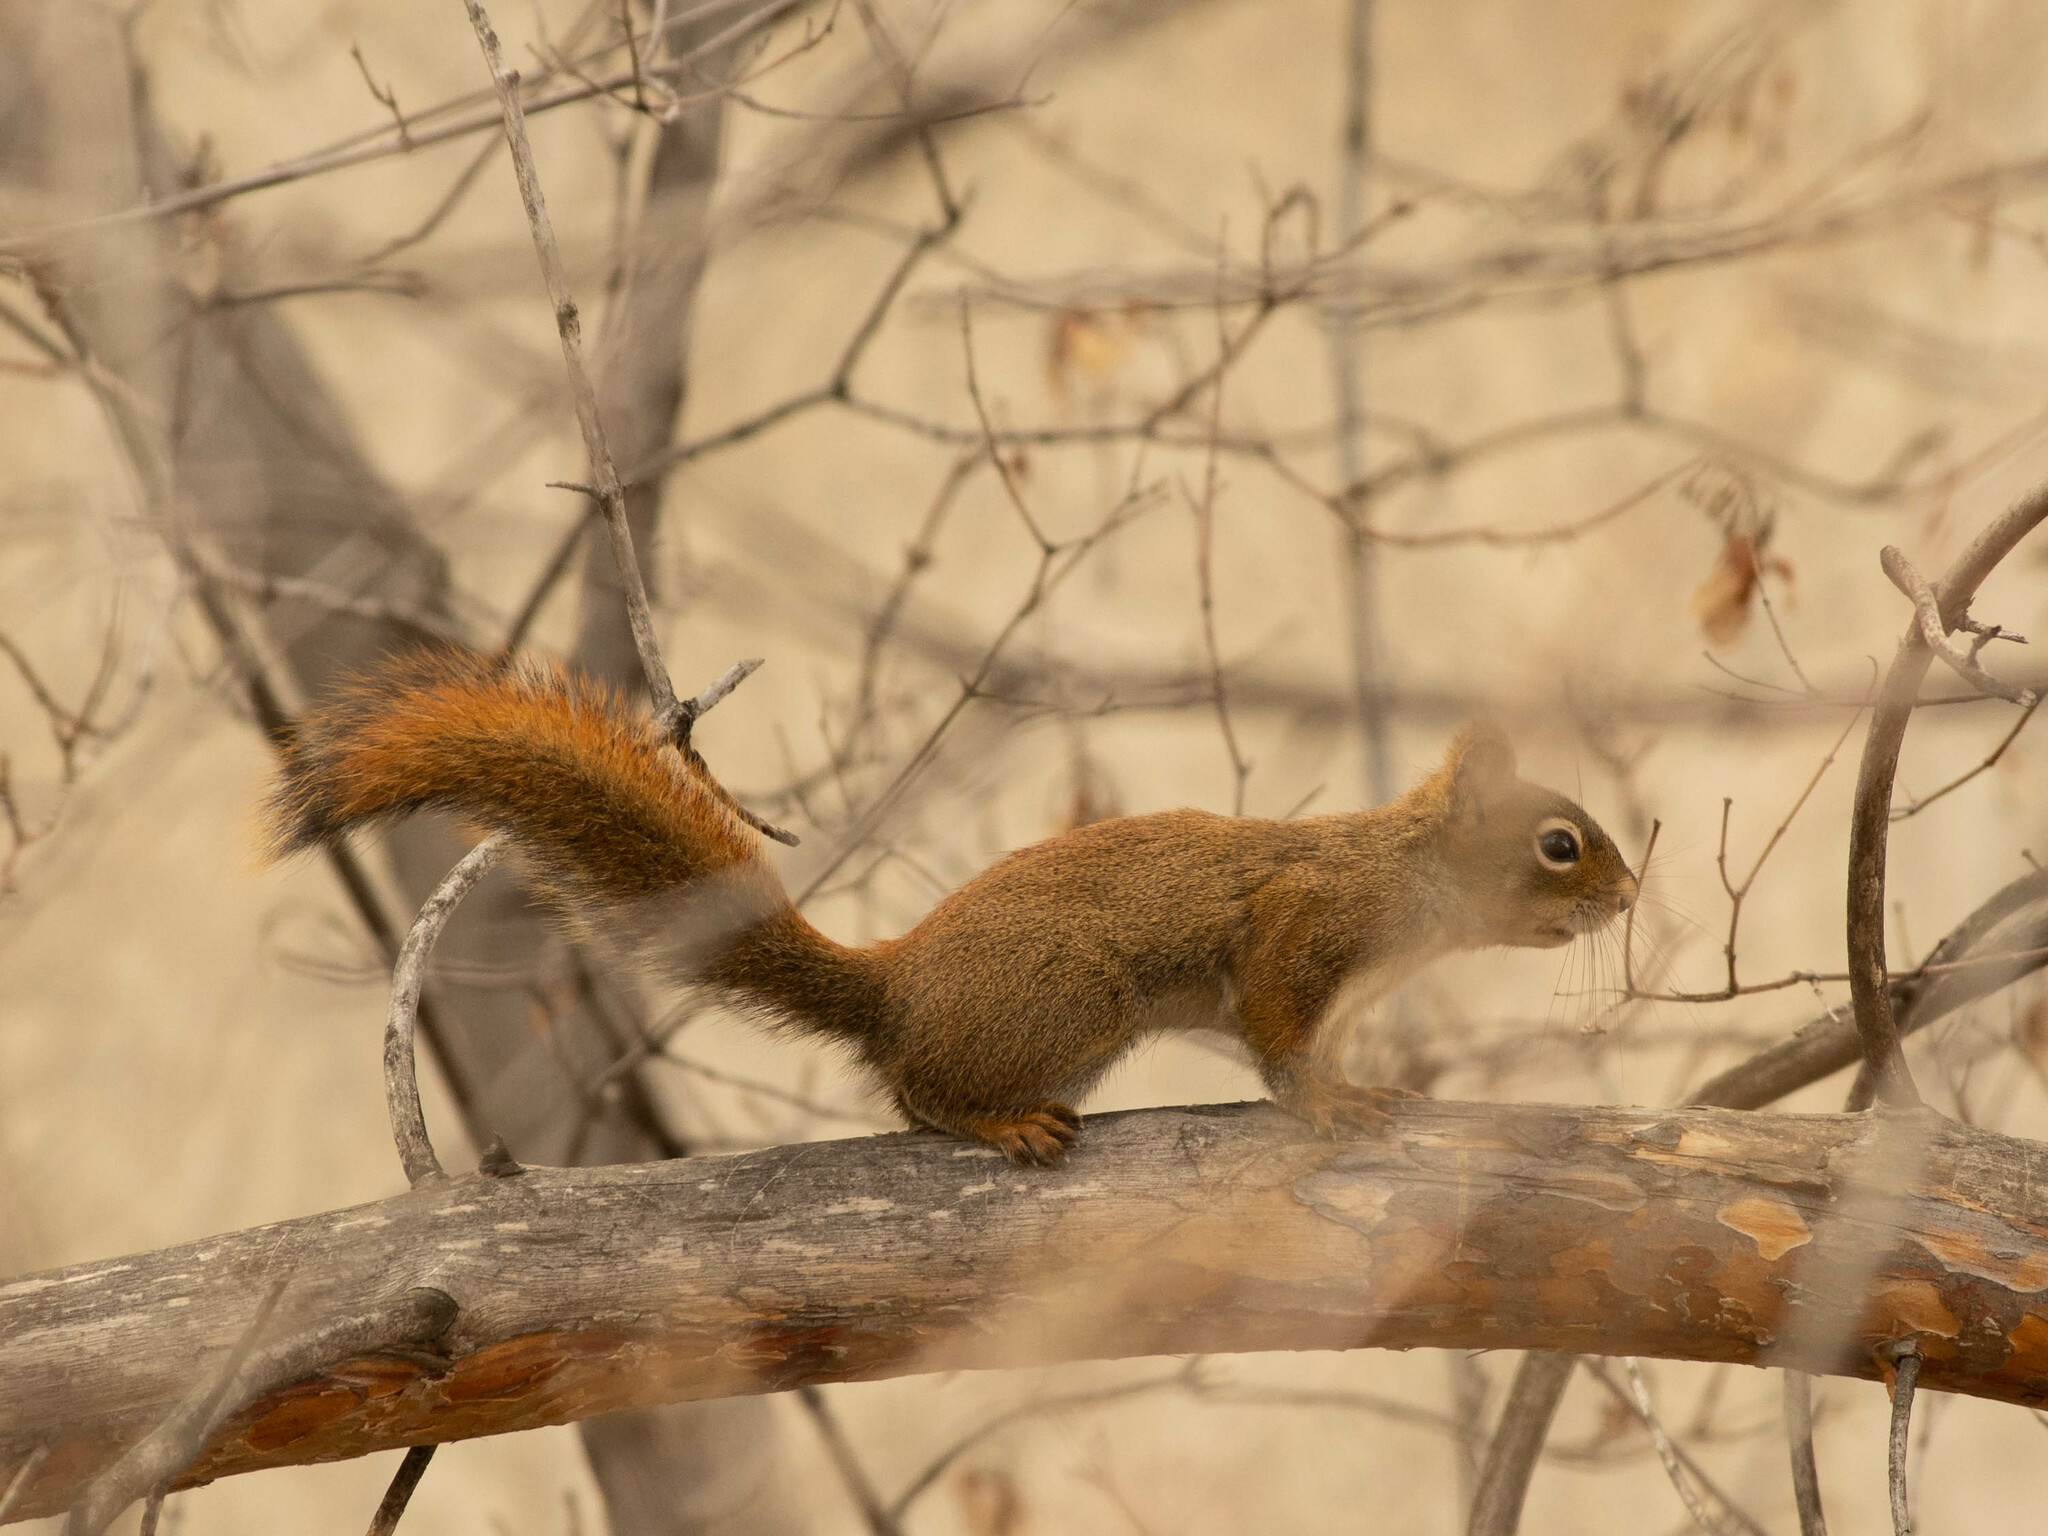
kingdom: Animalia
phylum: Chordata
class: Mammalia
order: Rodentia
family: Sciuridae
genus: Tamiasciurus
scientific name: Tamiasciurus hudsonicus
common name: Red squirrel
